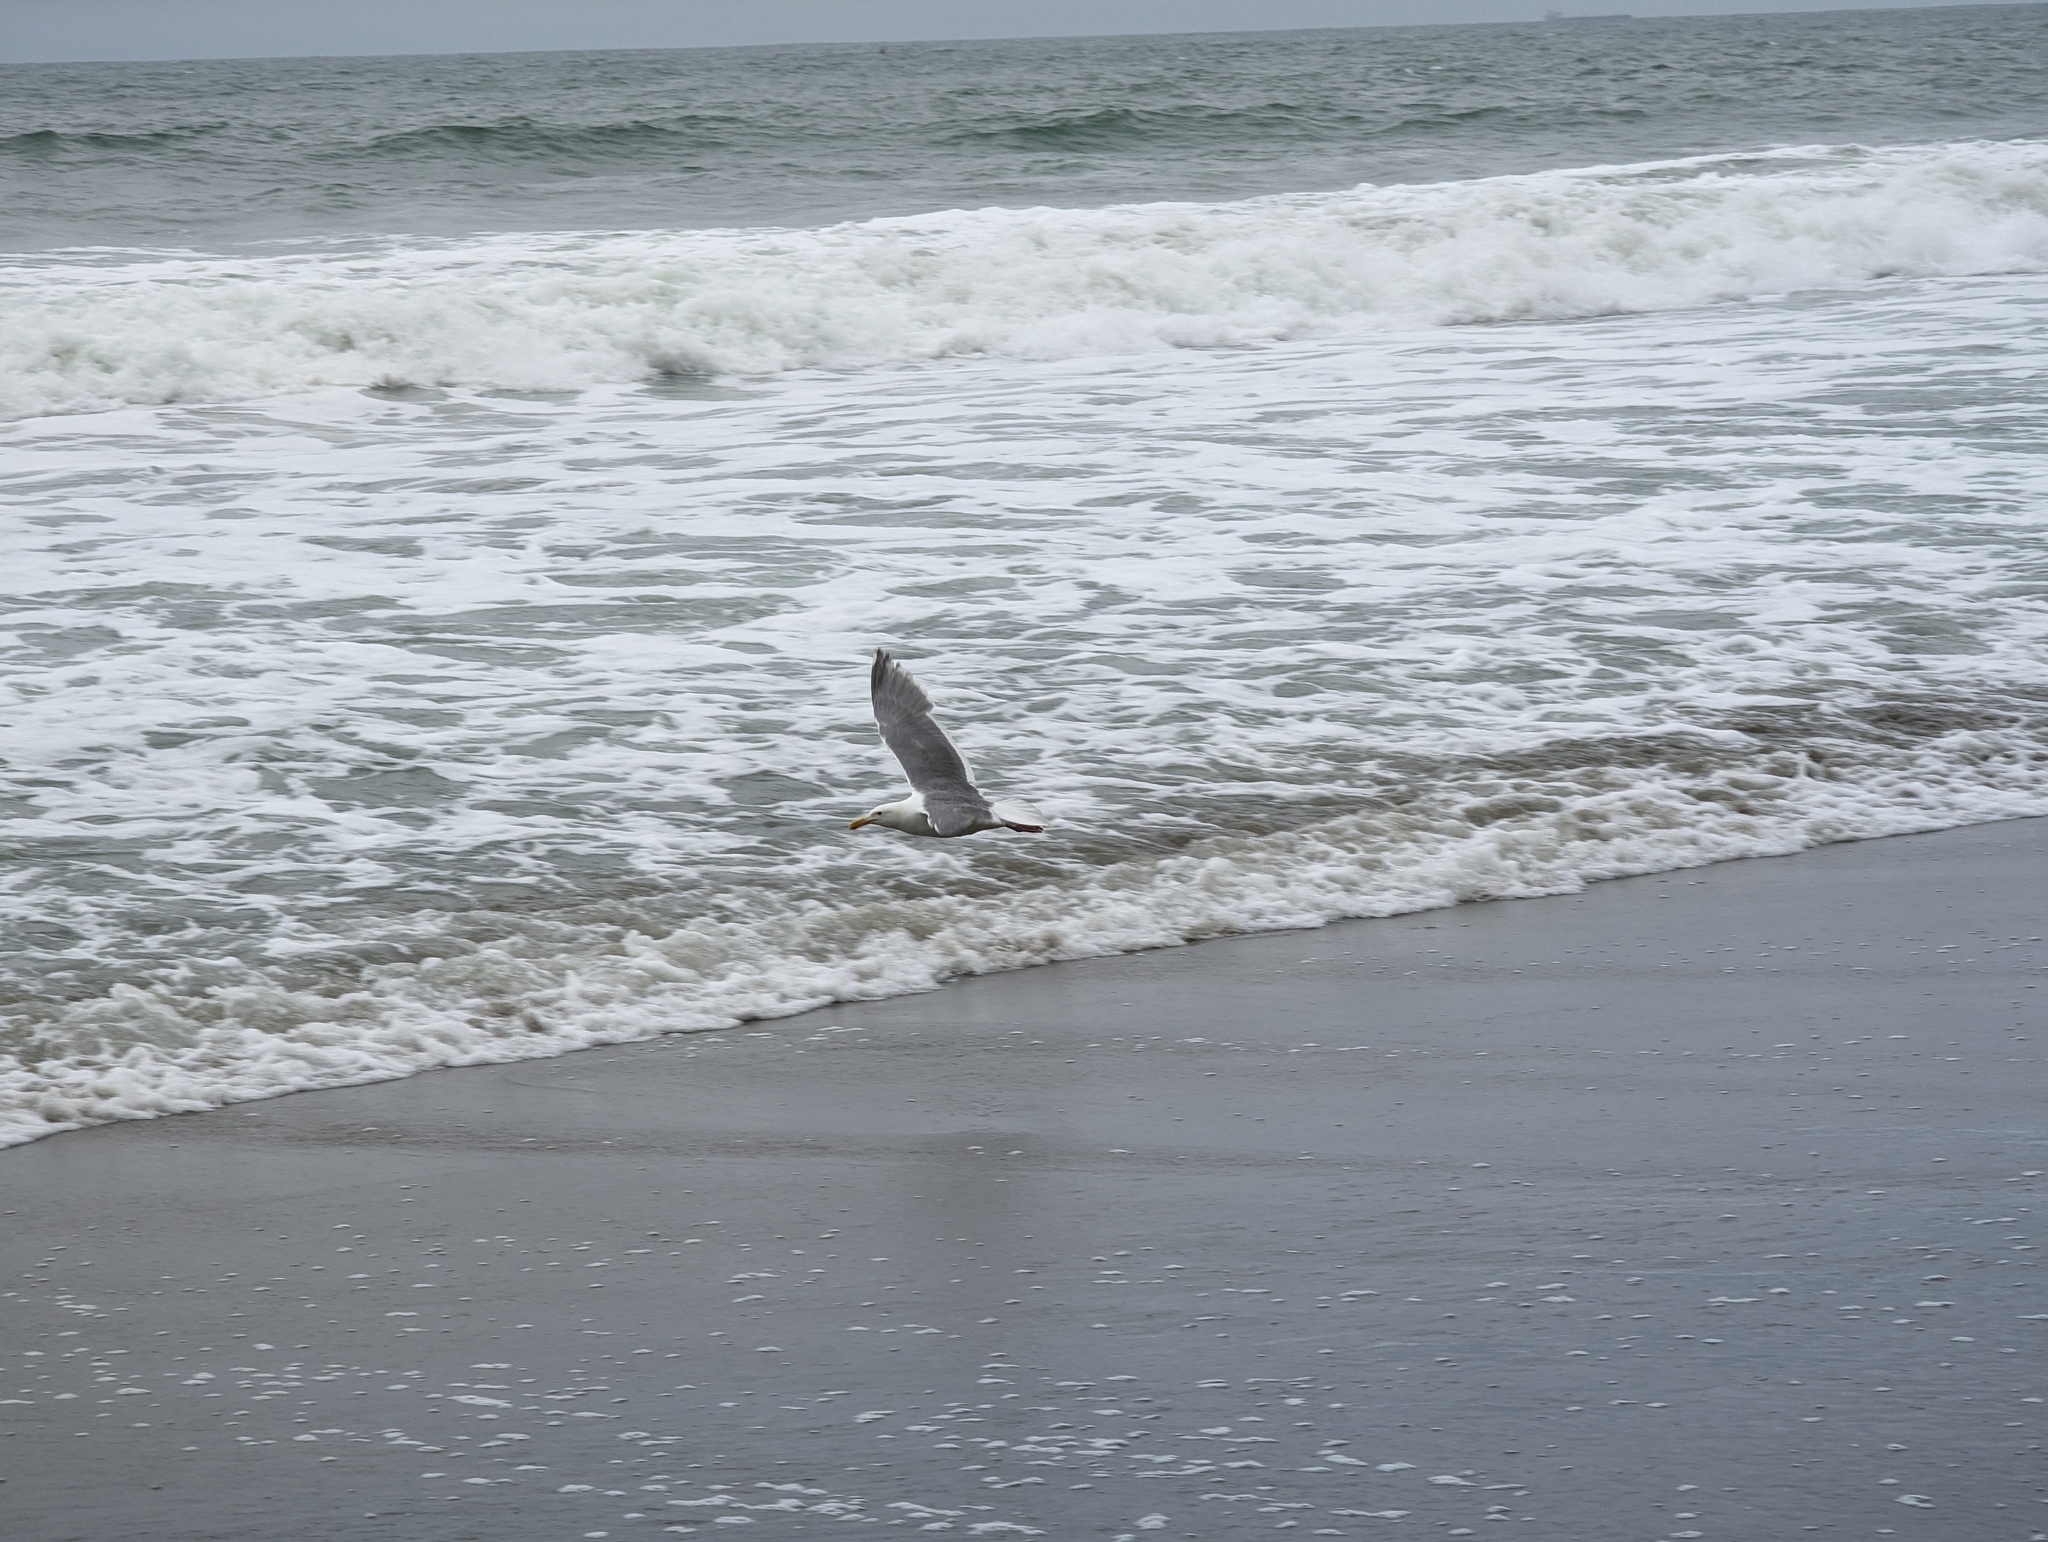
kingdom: Animalia
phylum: Chordata
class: Aves
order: Charadriiformes
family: Laridae
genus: Larus
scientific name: Larus occidentalis
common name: Western gull
